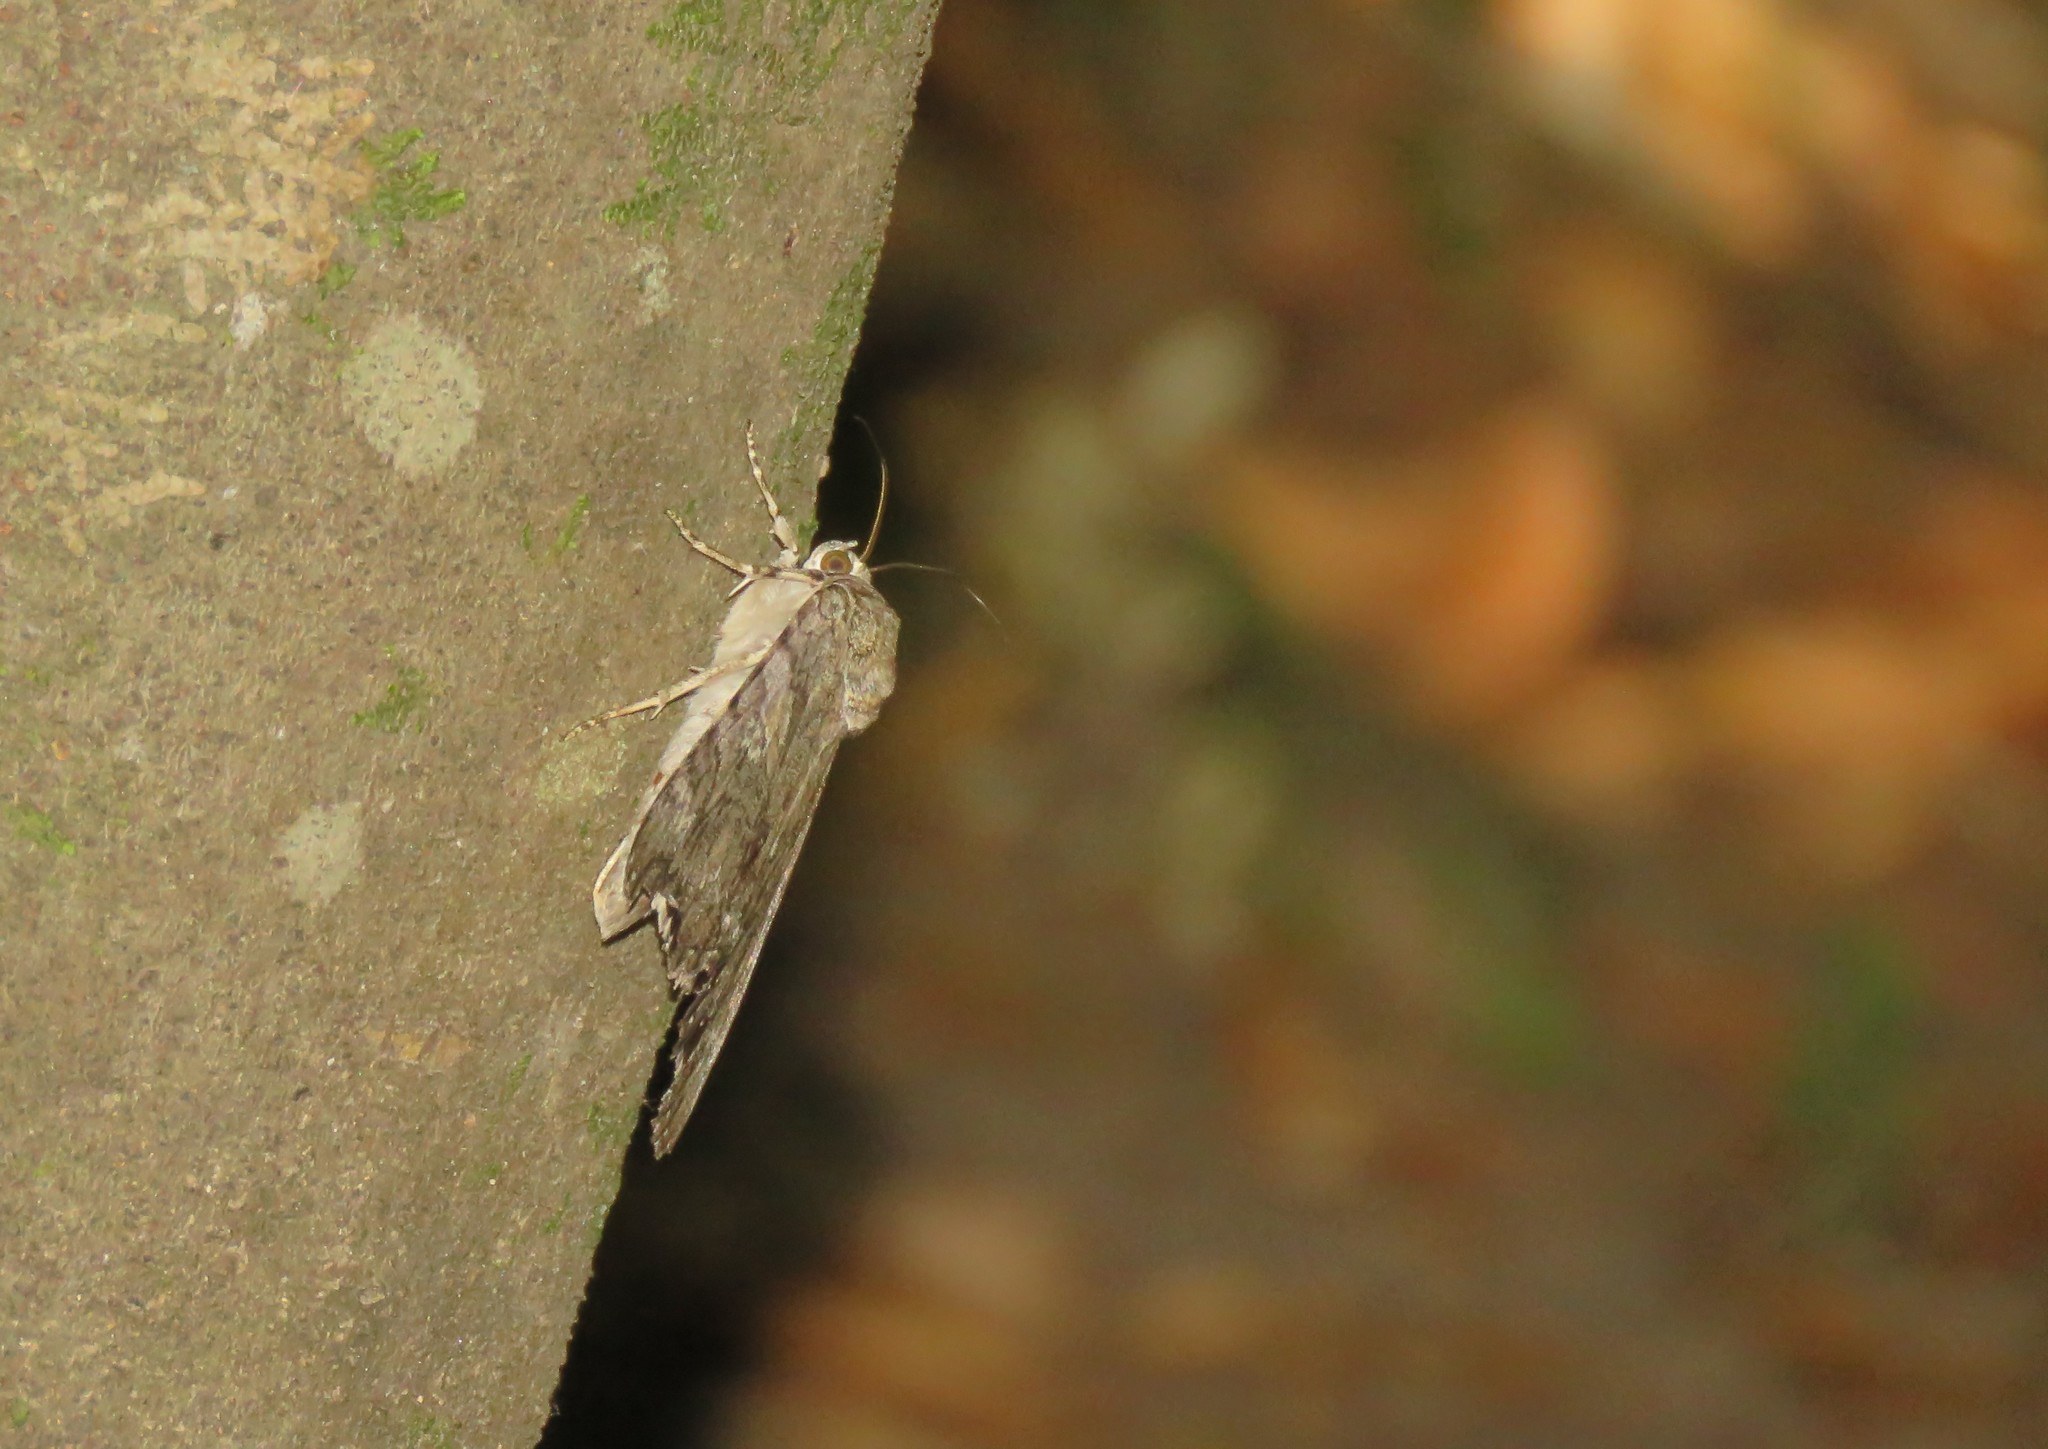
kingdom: Animalia
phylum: Arthropoda
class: Insecta
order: Lepidoptera
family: Erebidae
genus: Catocala
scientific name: Catocala coniuncta
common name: Minsmere crimson underwing
